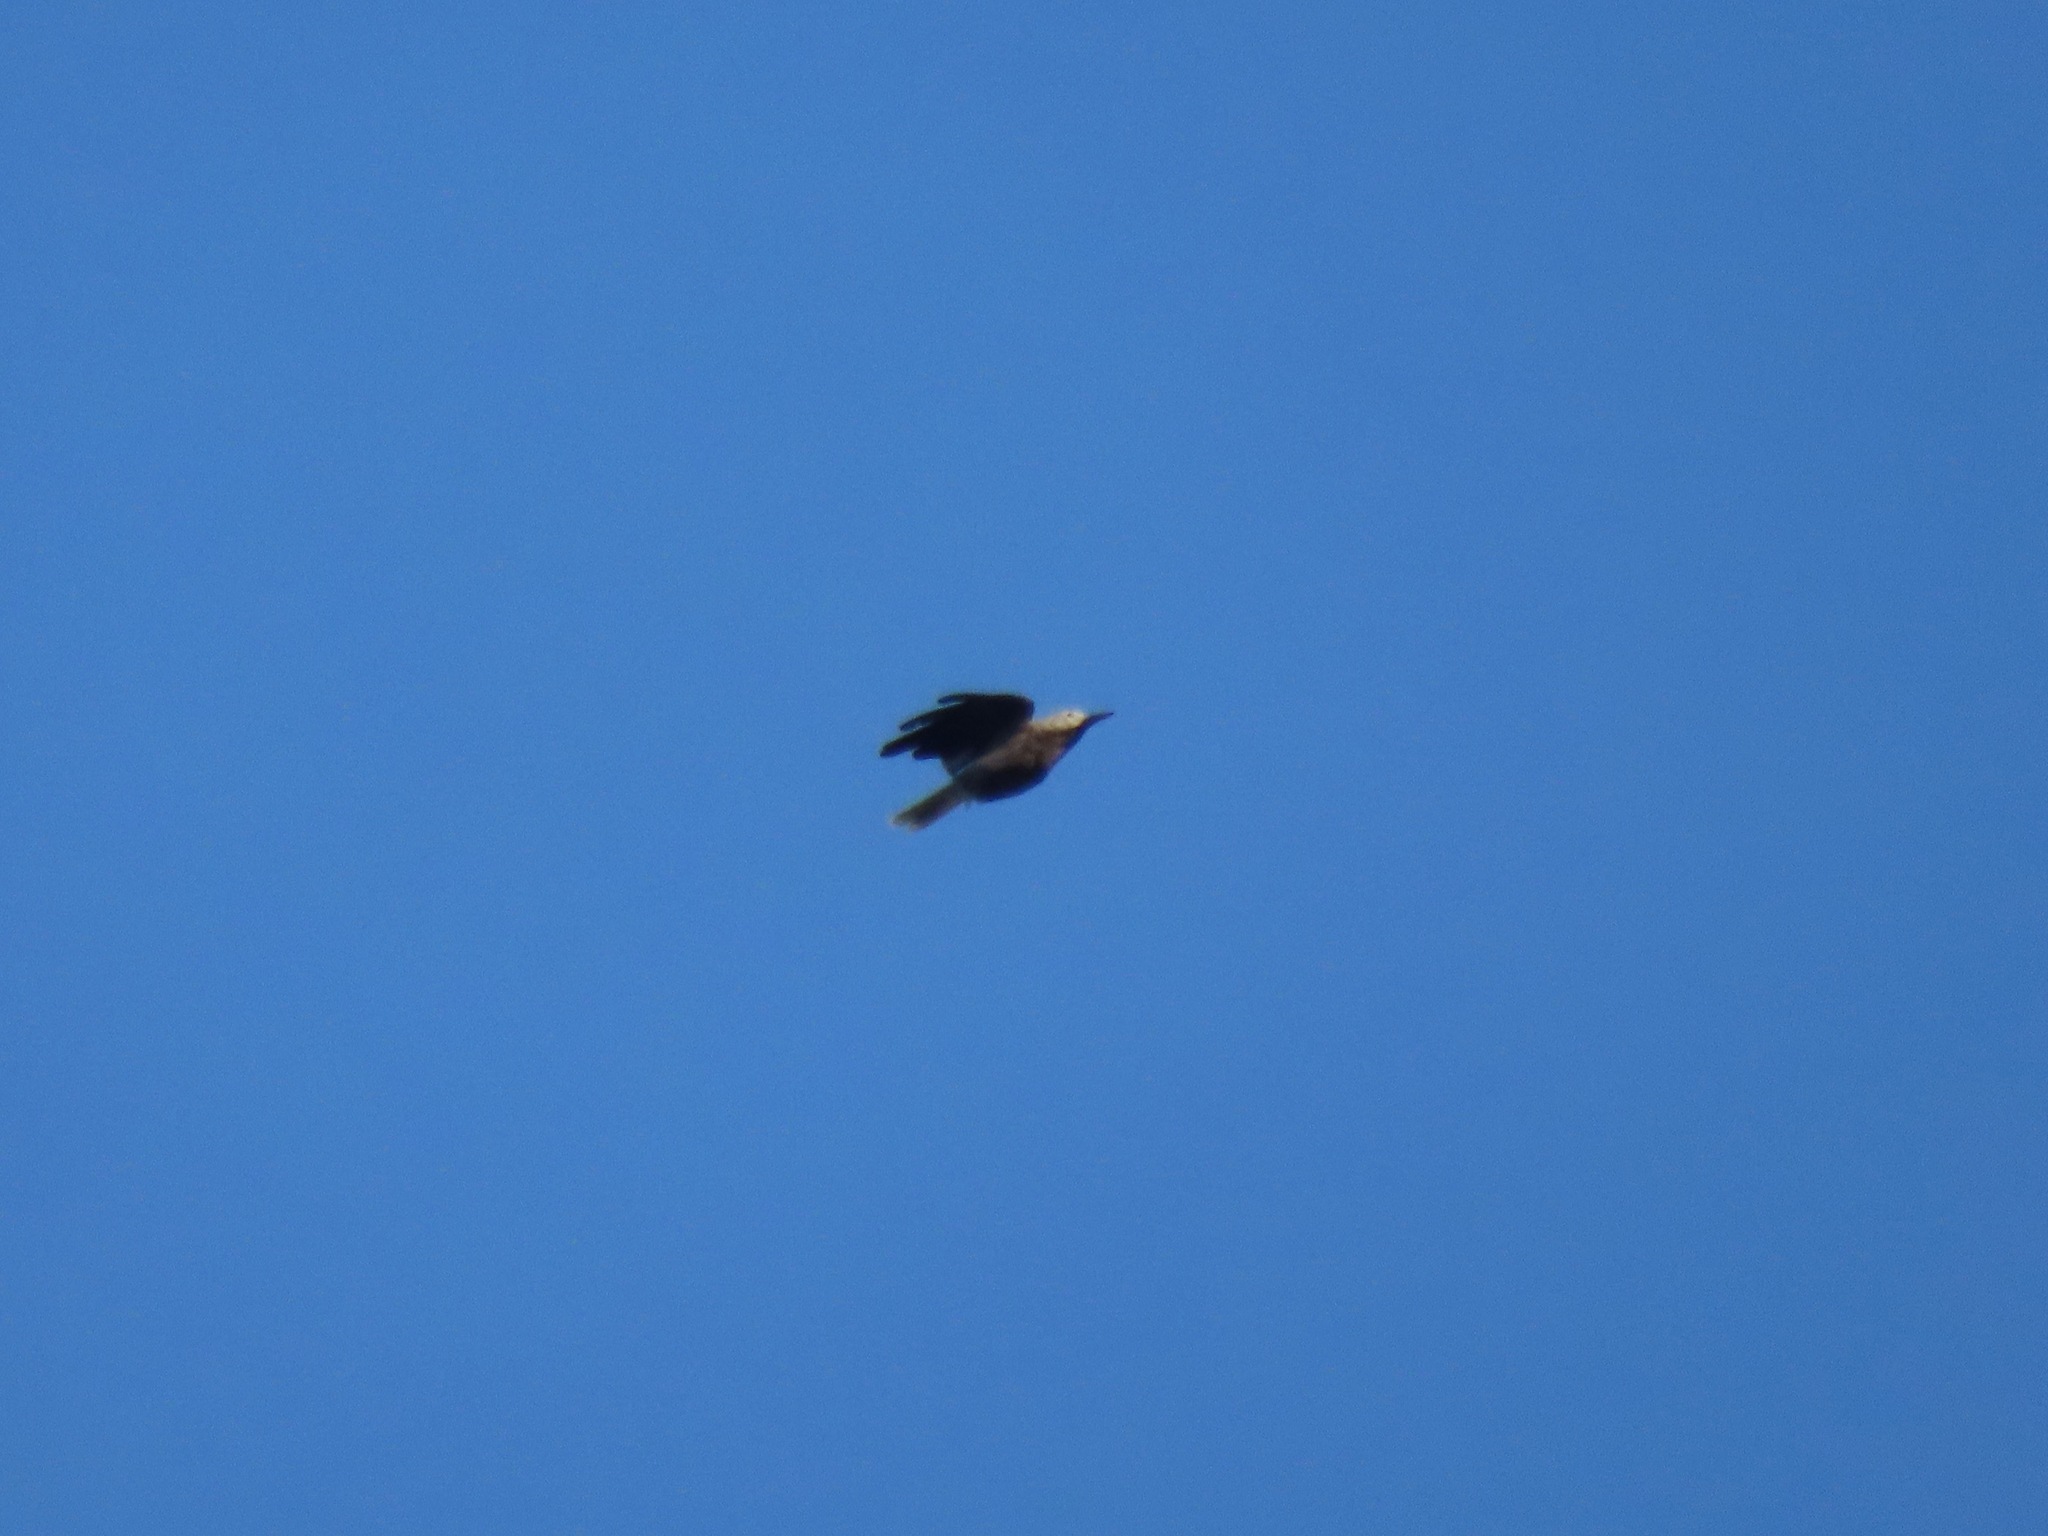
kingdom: Animalia
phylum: Chordata
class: Aves
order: Passeriformes
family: Corvidae
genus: Nucifraga
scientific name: Nucifraga columbiana
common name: Clark's nutcracker
